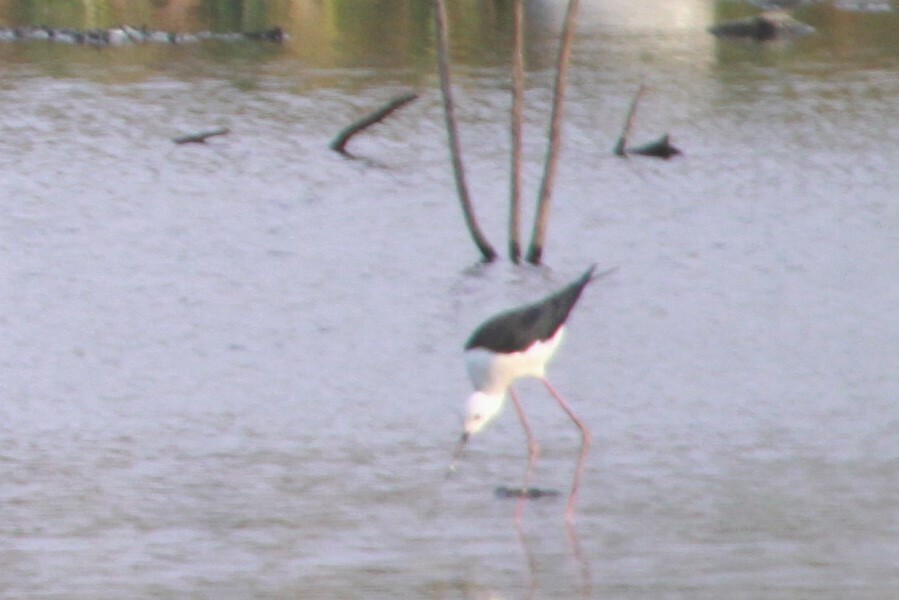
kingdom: Animalia
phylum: Chordata
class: Aves
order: Charadriiformes
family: Recurvirostridae
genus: Himantopus
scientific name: Himantopus himantopus
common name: Black-winged stilt
